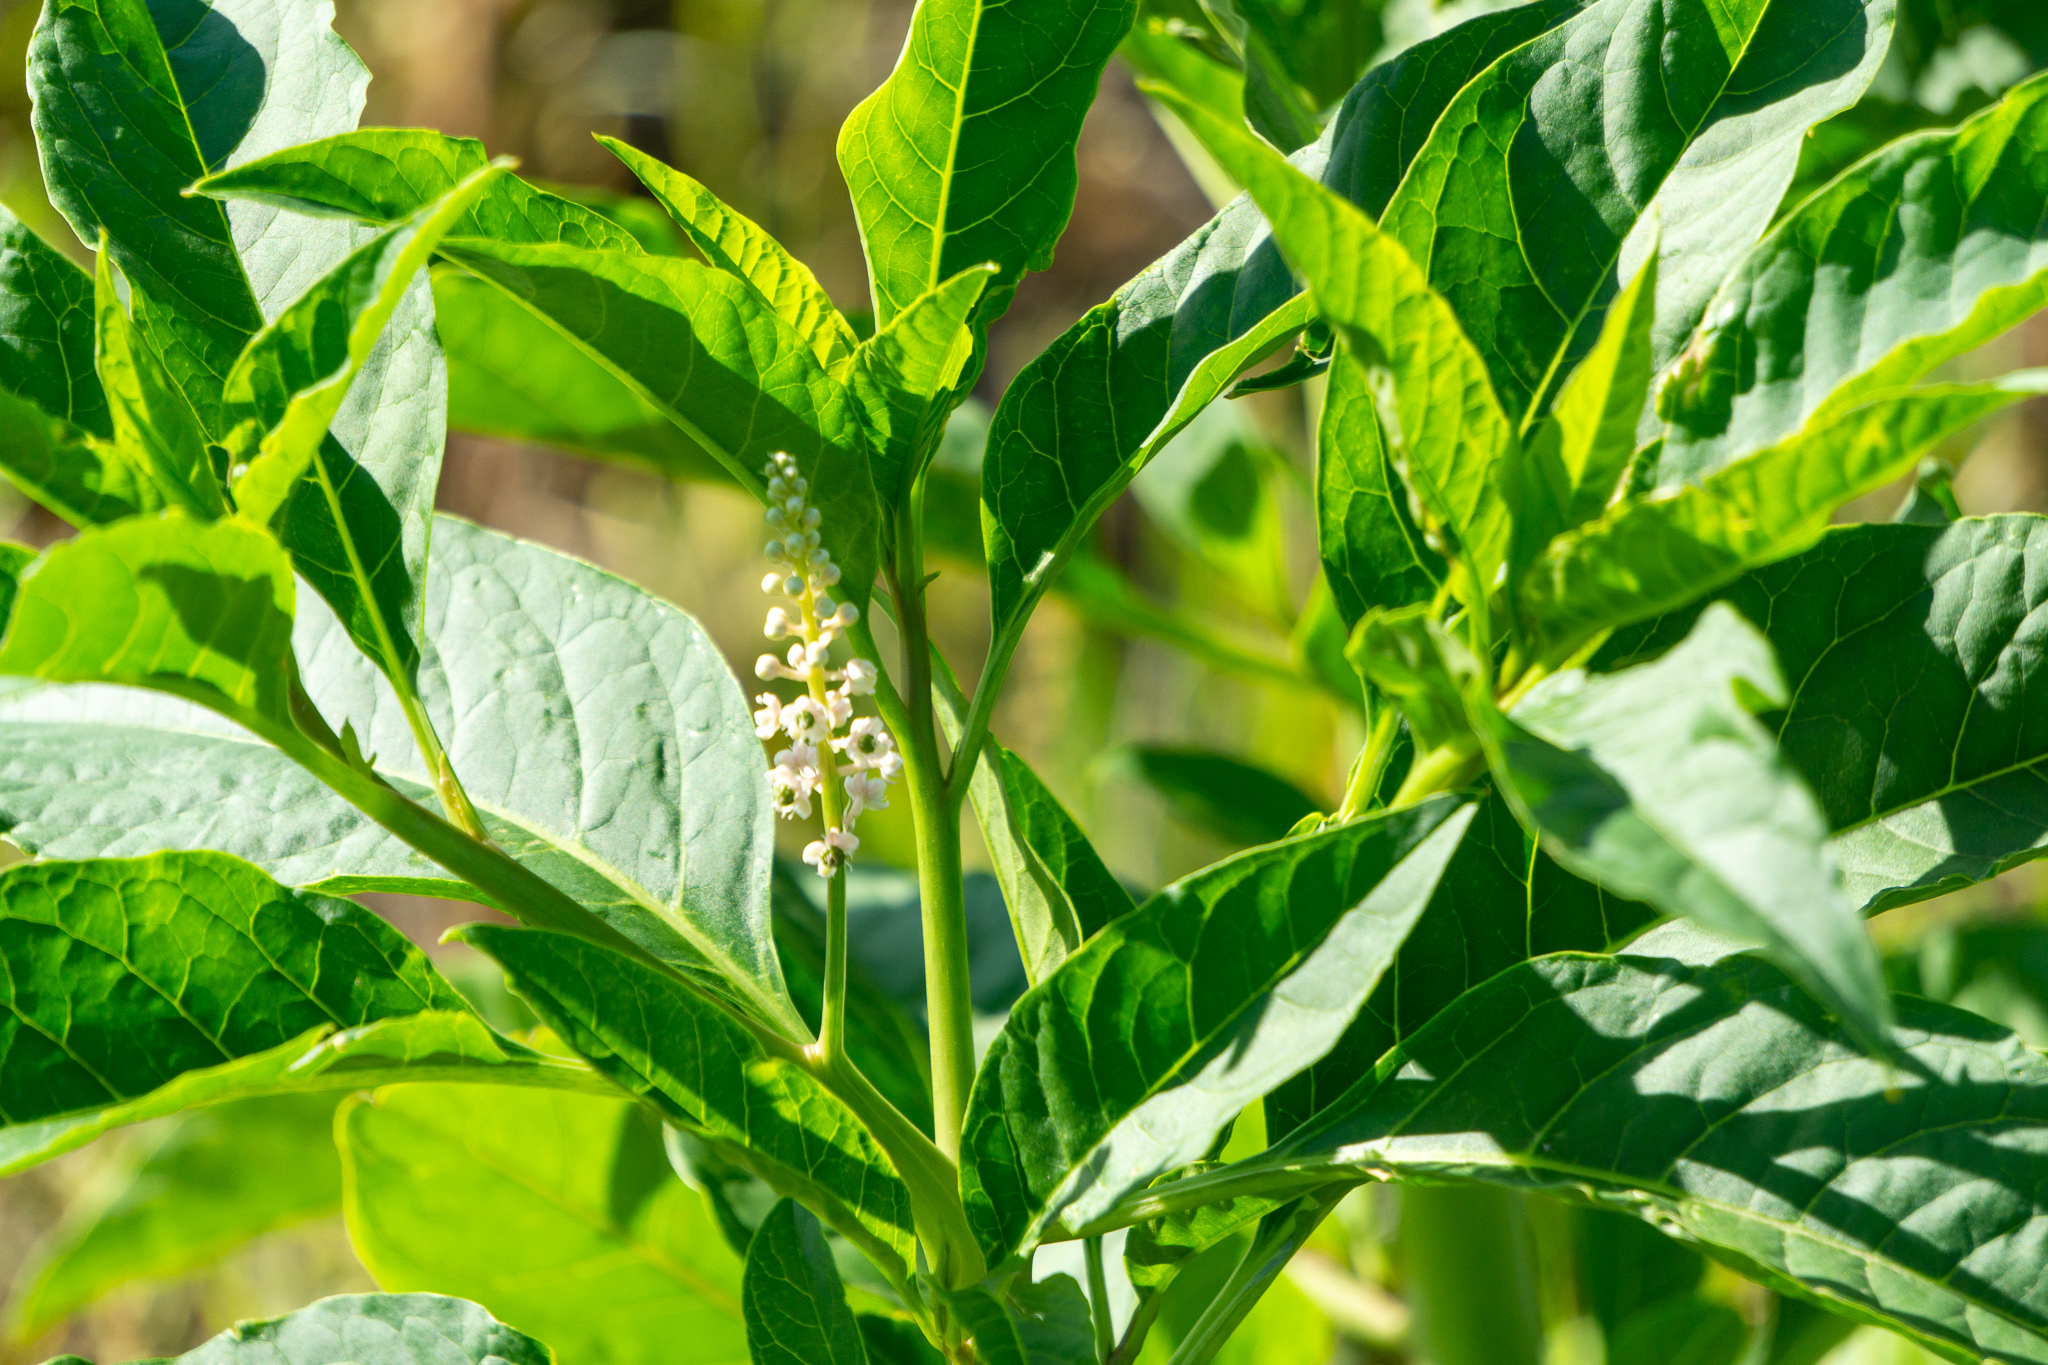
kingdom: Plantae
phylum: Tracheophyta
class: Magnoliopsida
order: Caryophyllales
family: Phytolaccaceae
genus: Phytolacca
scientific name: Phytolacca americana
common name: American pokeweed
